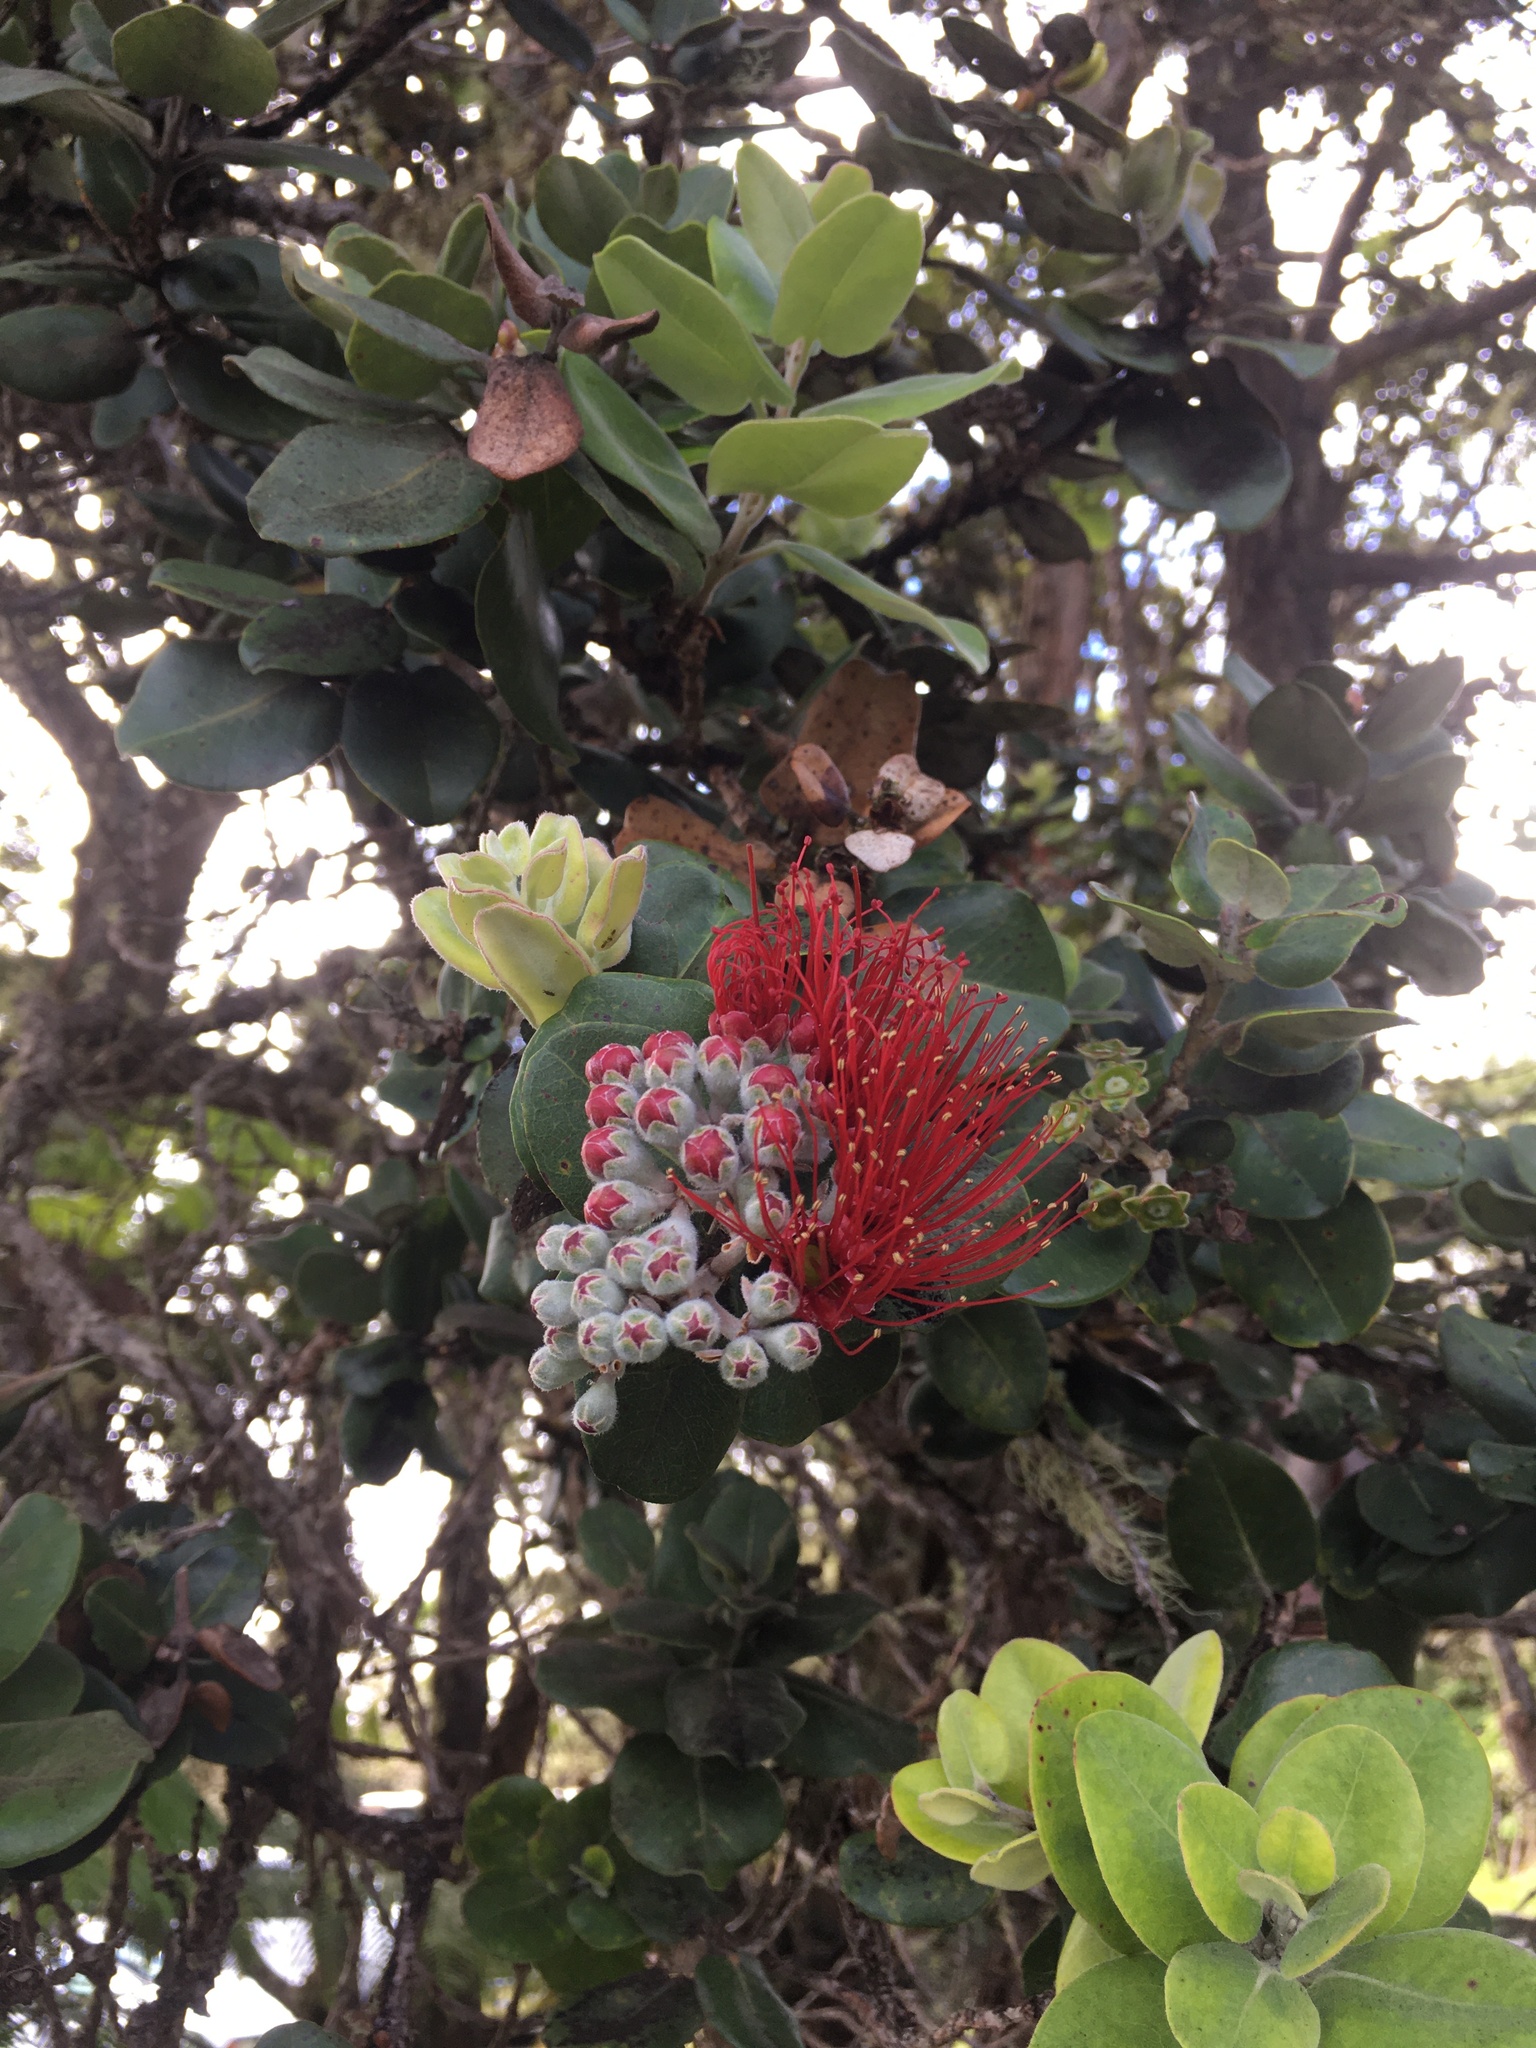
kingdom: Plantae
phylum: Tracheophyta
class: Magnoliopsida
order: Myrtales
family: Myrtaceae
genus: Metrosideros
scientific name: Metrosideros polymorpha
